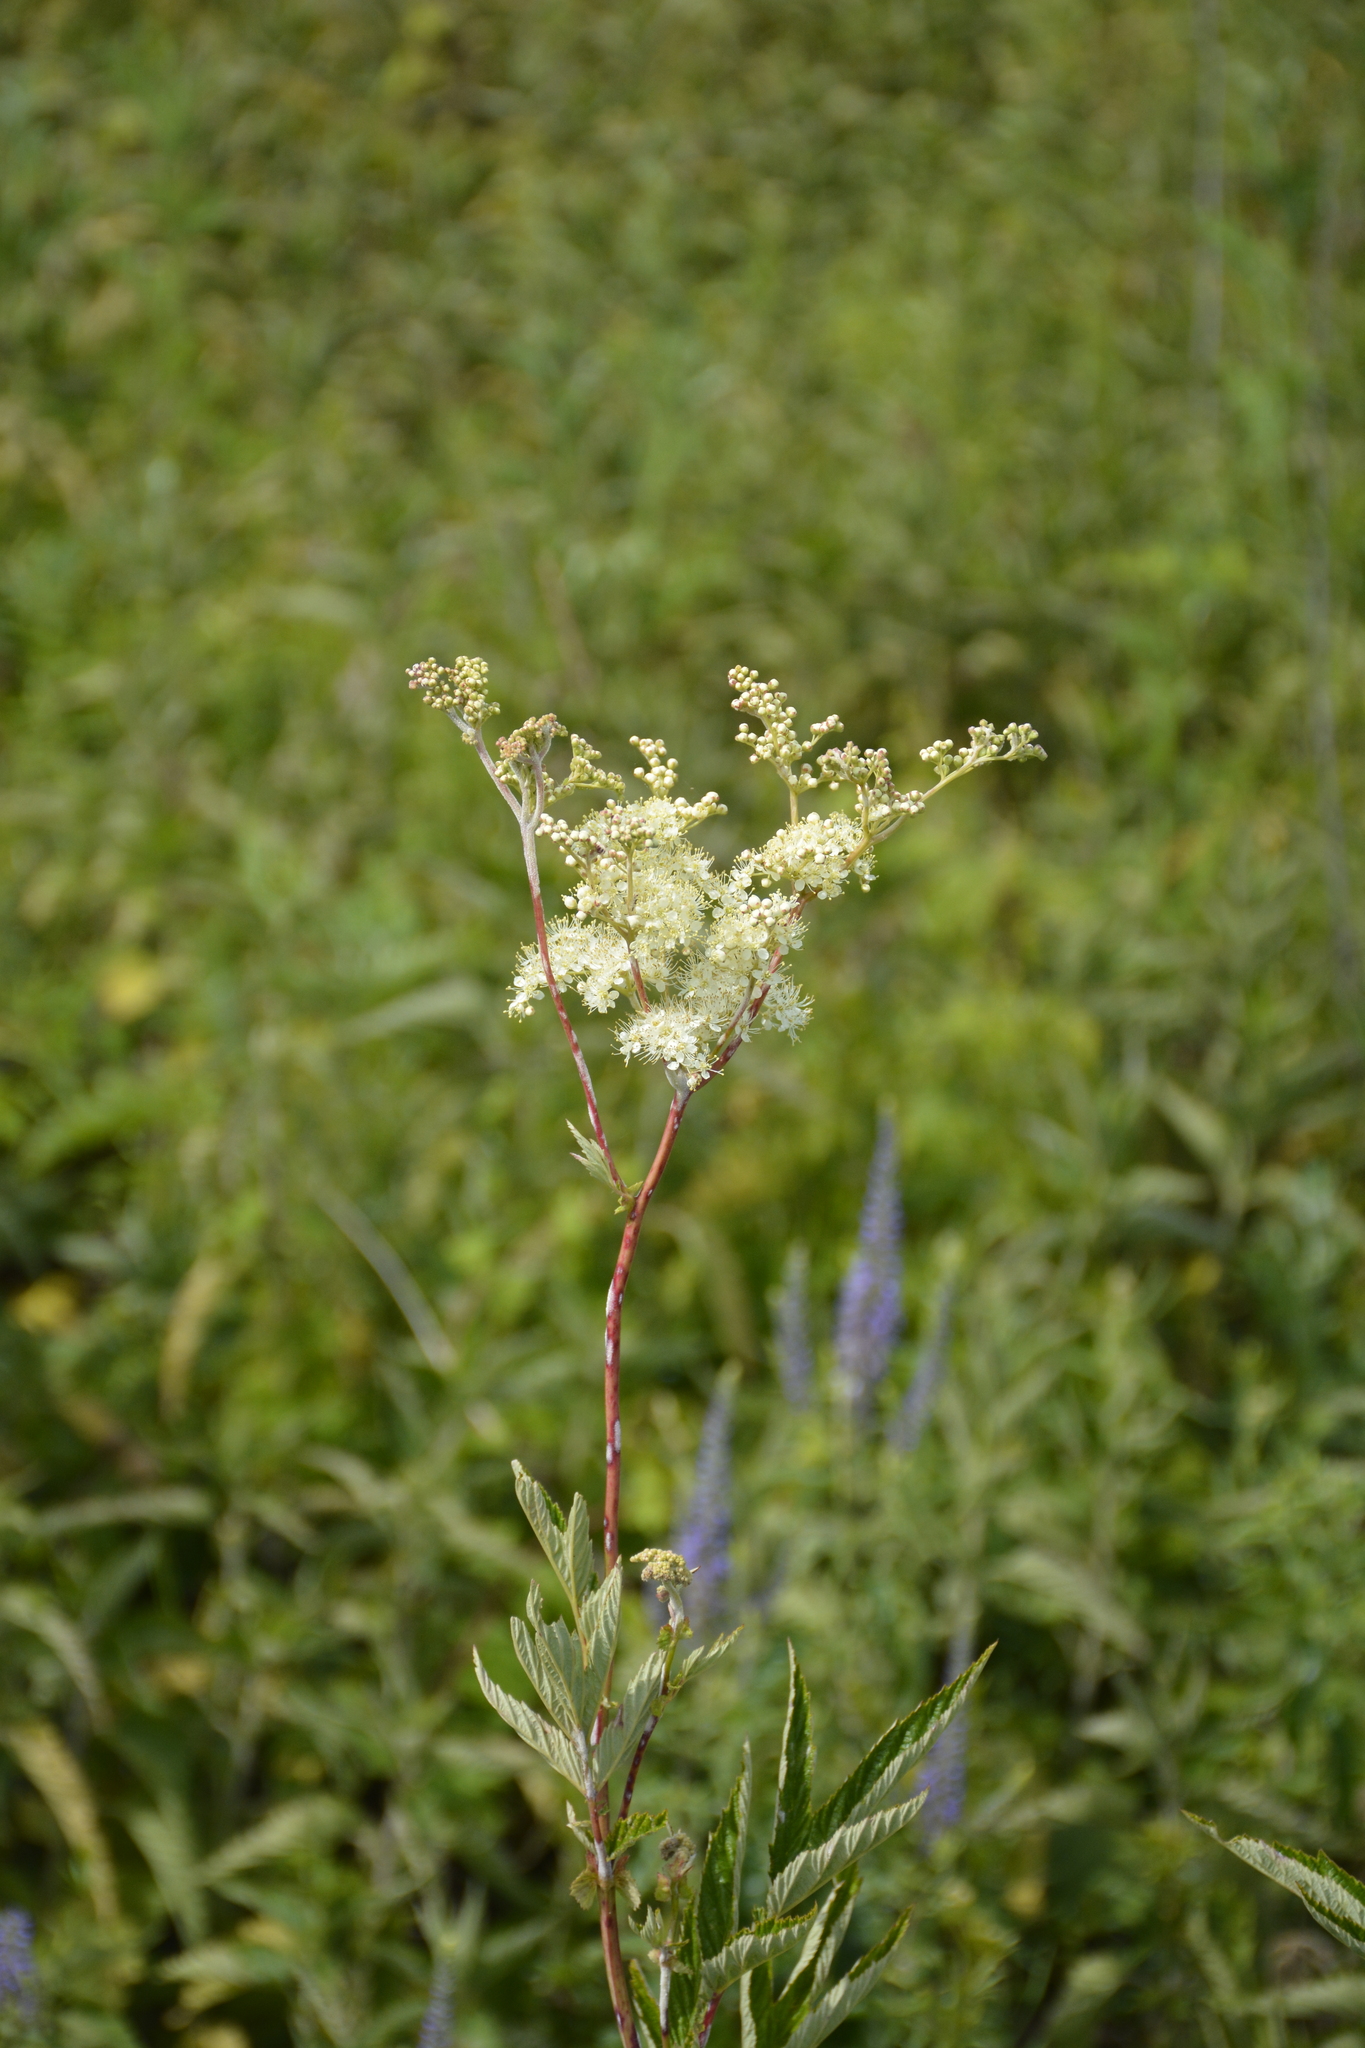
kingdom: Plantae
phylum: Tracheophyta
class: Magnoliopsida
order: Rosales
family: Rosaceae
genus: Filipendula
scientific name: Filipendula ulmaria
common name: Meadowsweet
